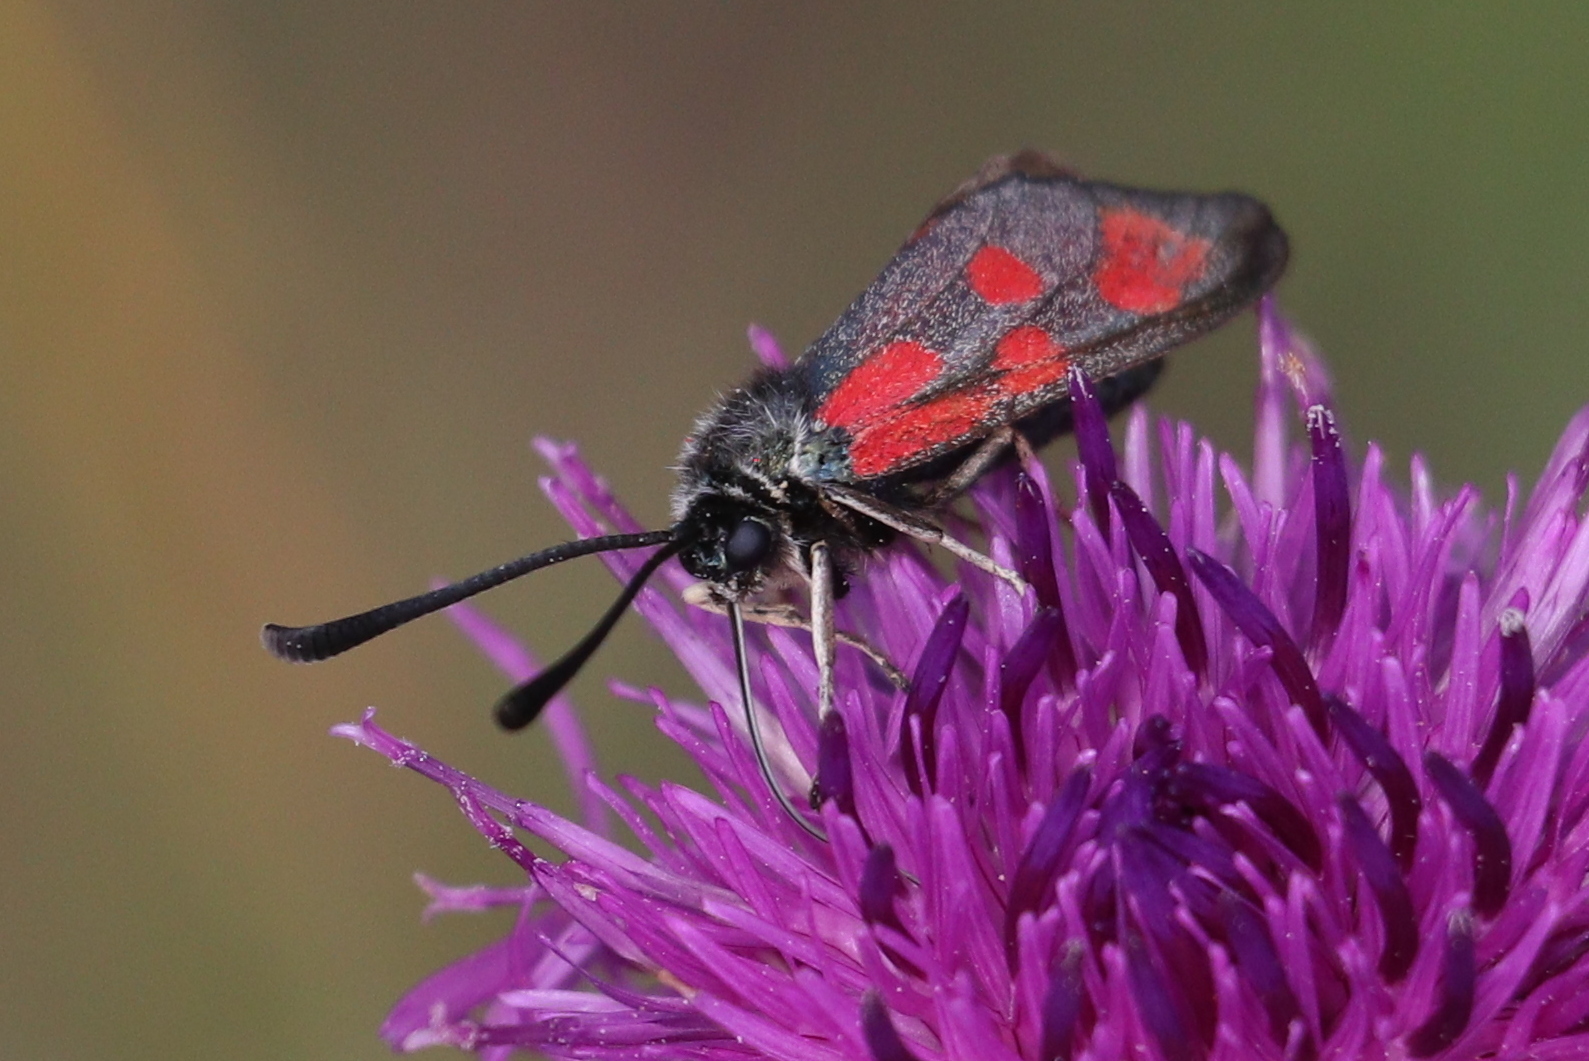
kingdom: Animalia
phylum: Arthropoda
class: Insecta
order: Lepidoptera
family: Zygaenidae
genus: Zygaena
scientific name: Zygaena loti
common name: Slender scotch burnet
